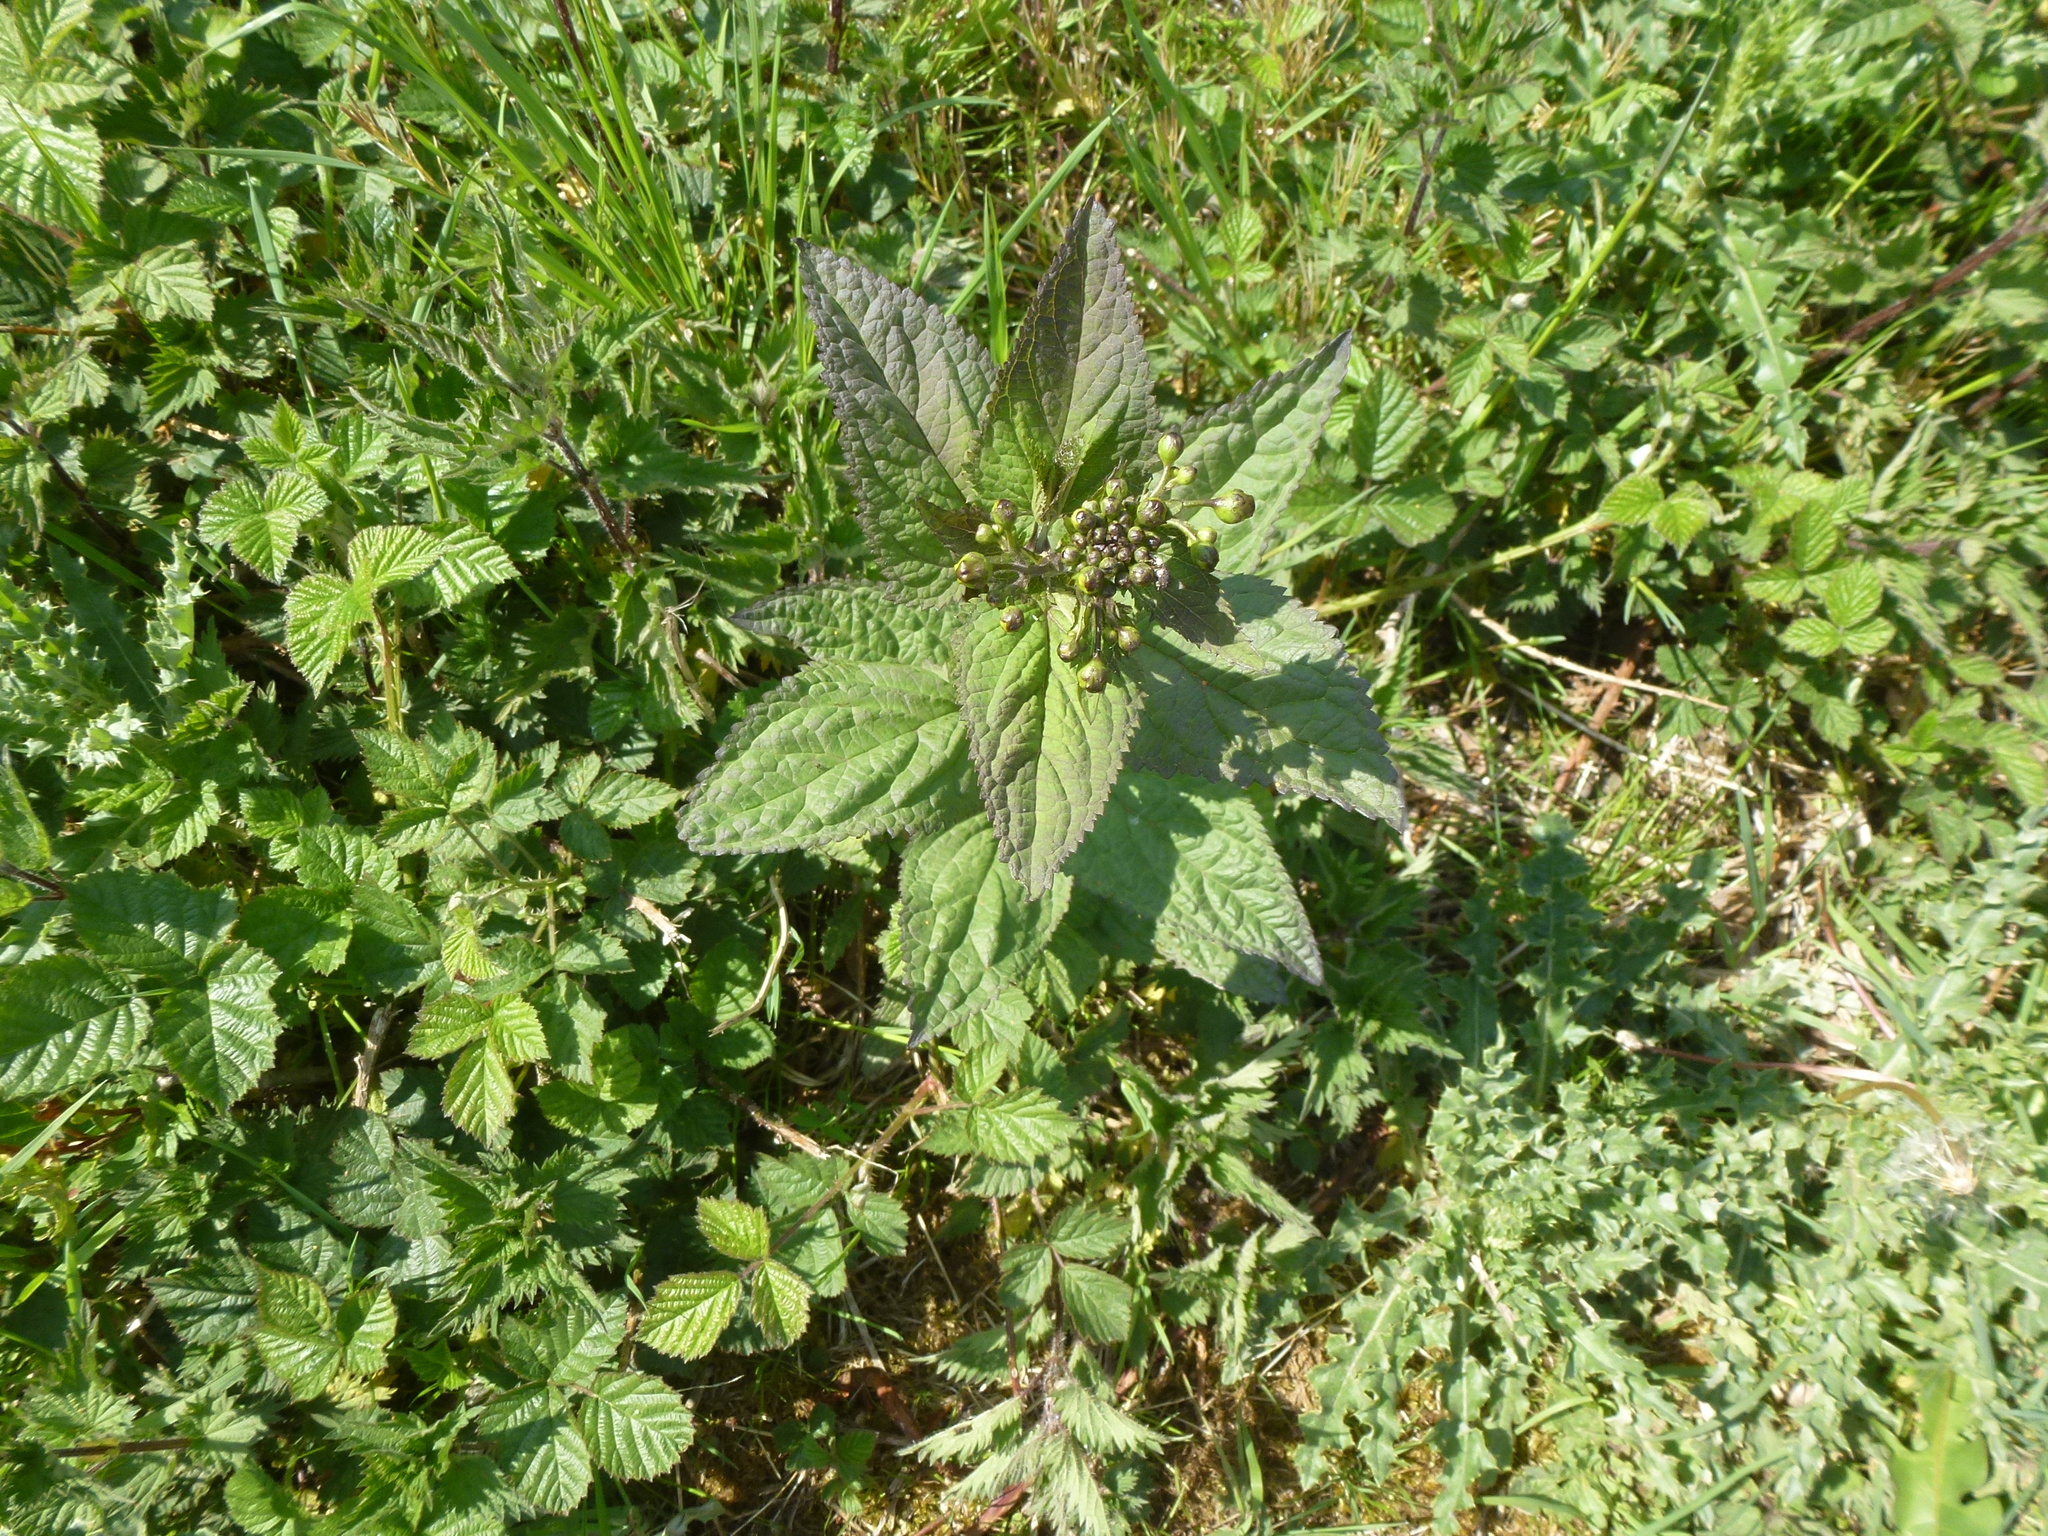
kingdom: Plantae
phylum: Tracheophyta
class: Magnoliopsida
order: Lamiales
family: Scrophulariaceae
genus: Scrophularia
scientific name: Scrophularia nodosa
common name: Common figwort
